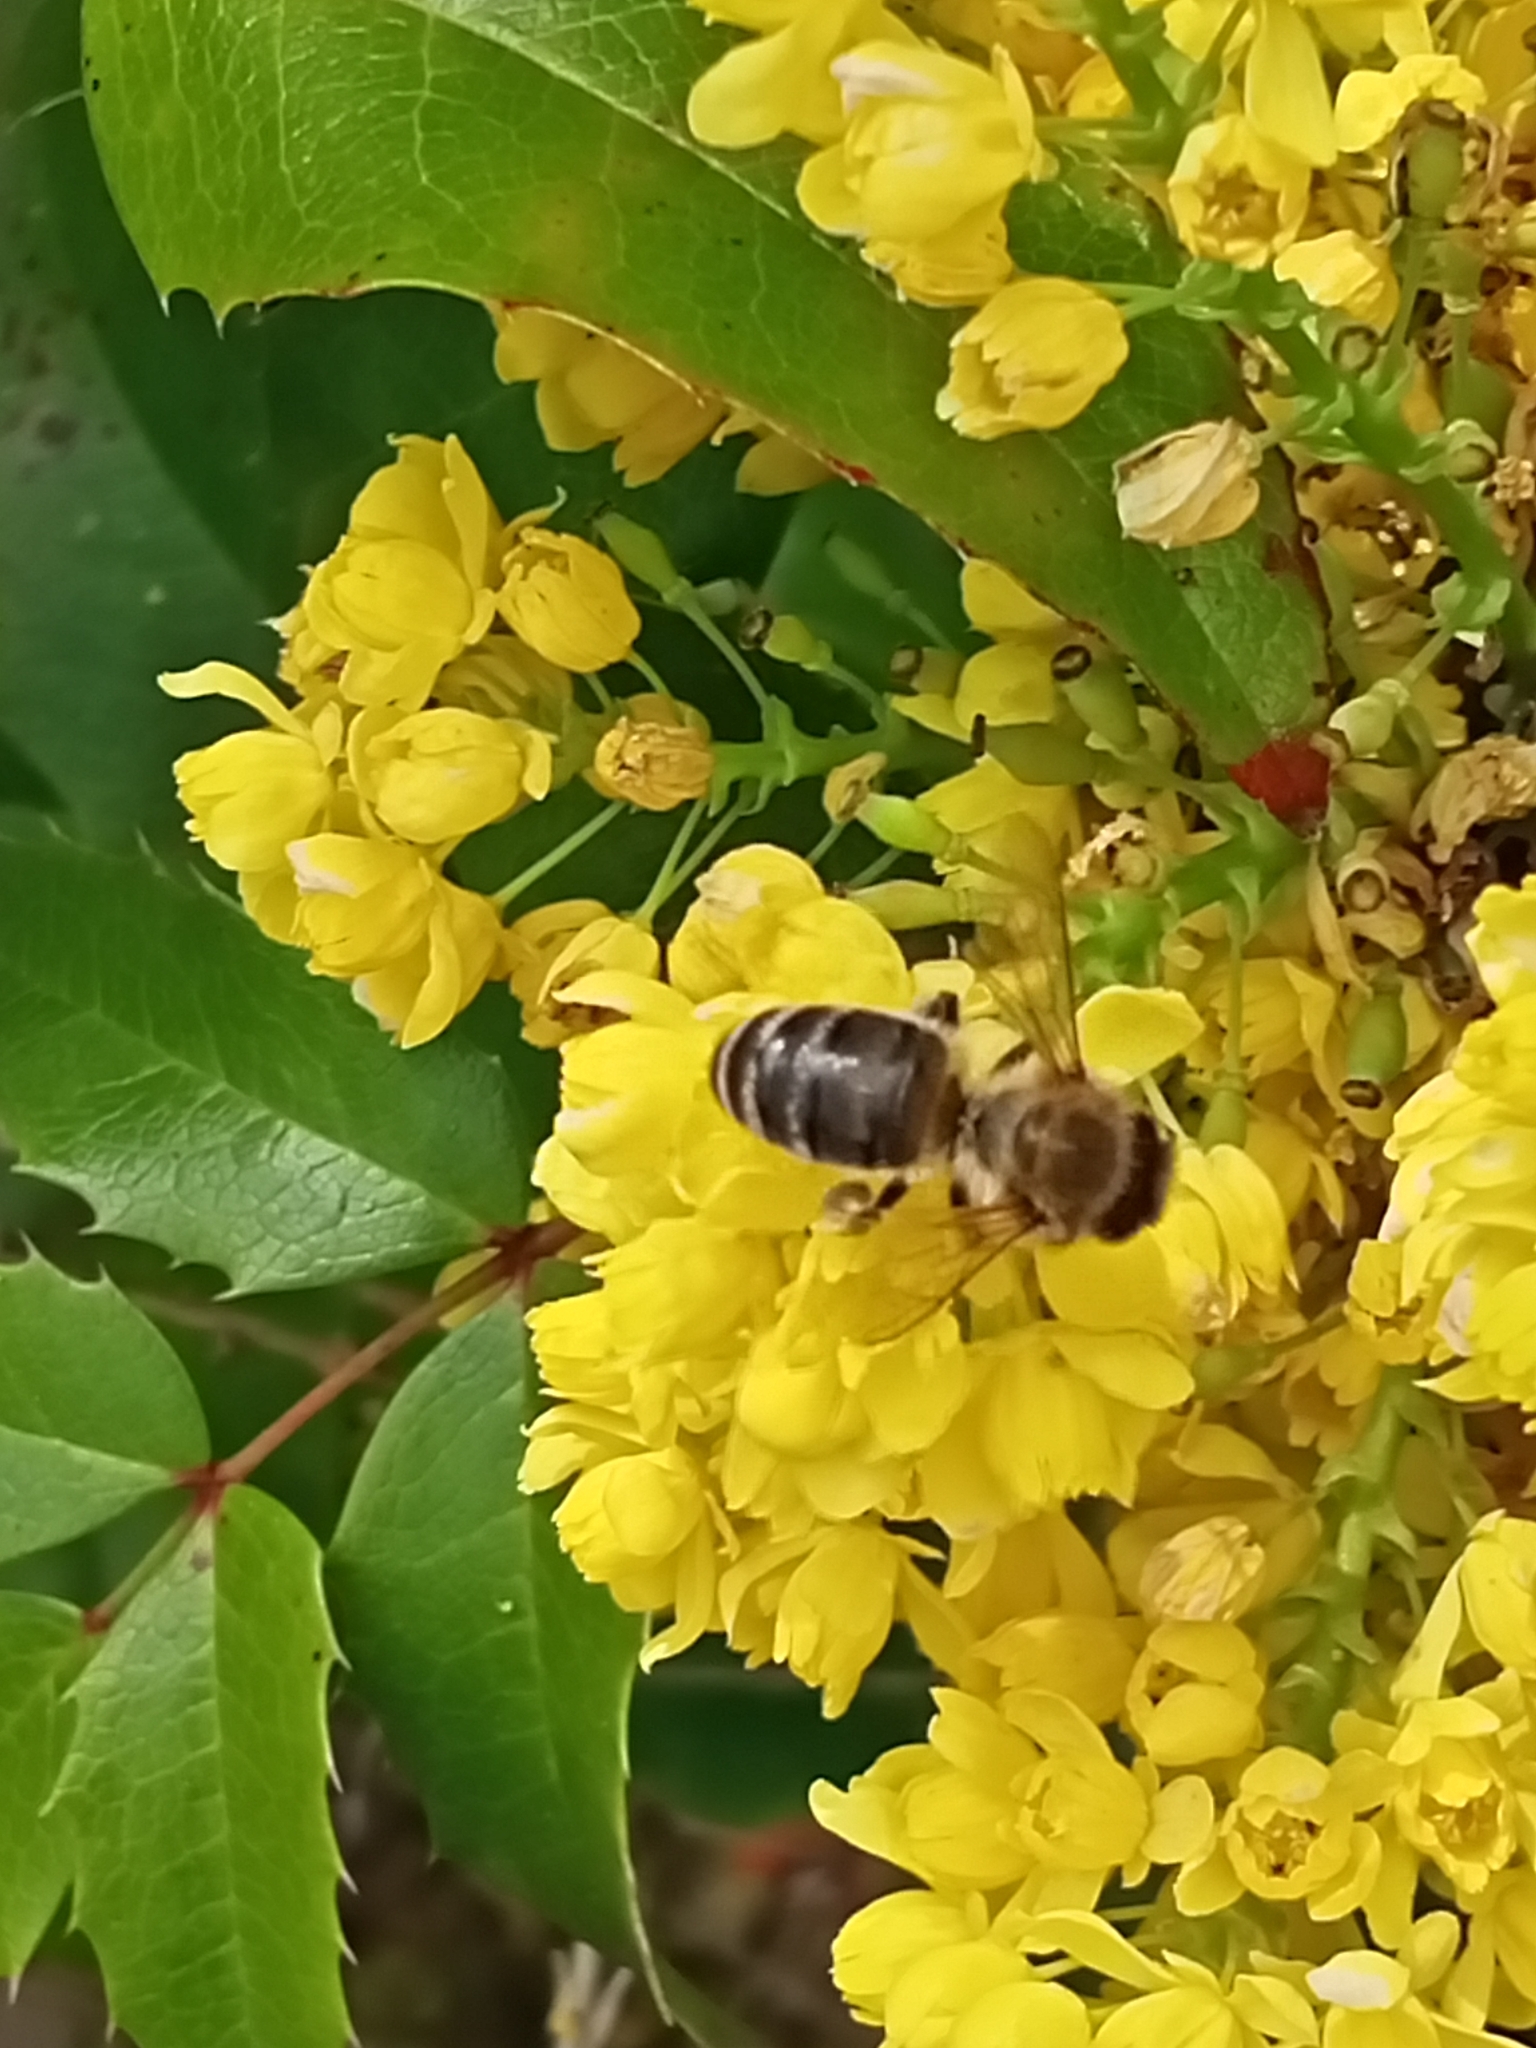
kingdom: Animalia
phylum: Arthropoda
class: Insecta
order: Hymenoptera
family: Apidae
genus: Apis
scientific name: Apis mellifera
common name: Honey bee
